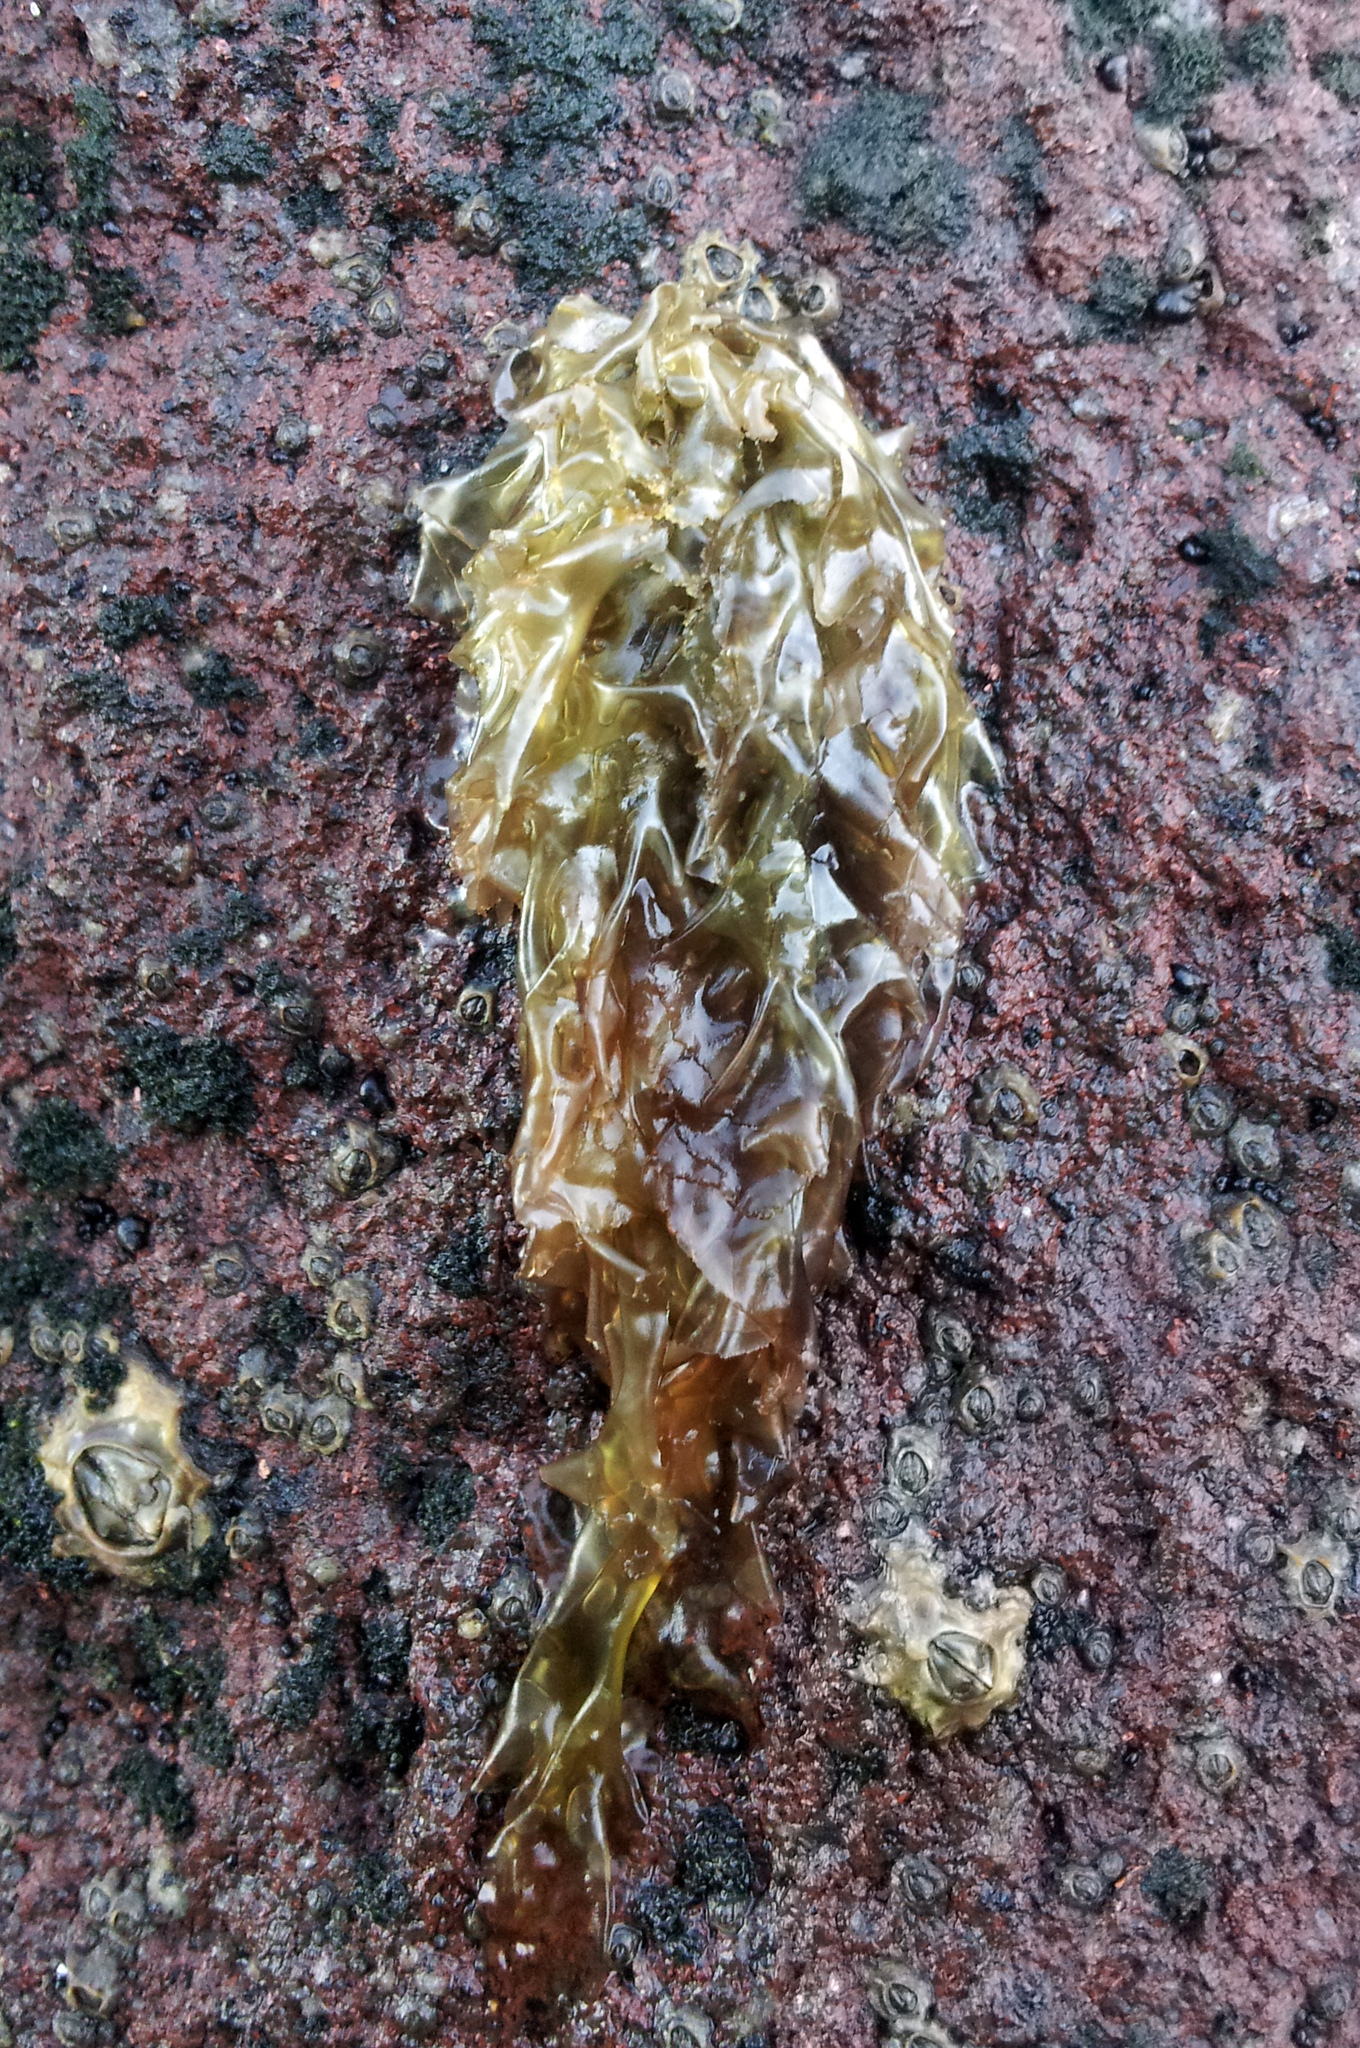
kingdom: Plantae
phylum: Rhodophyta
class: Bangiophyceae
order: Bangiales
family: Bangiaceae
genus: Clymene
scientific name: Clymene coleana
